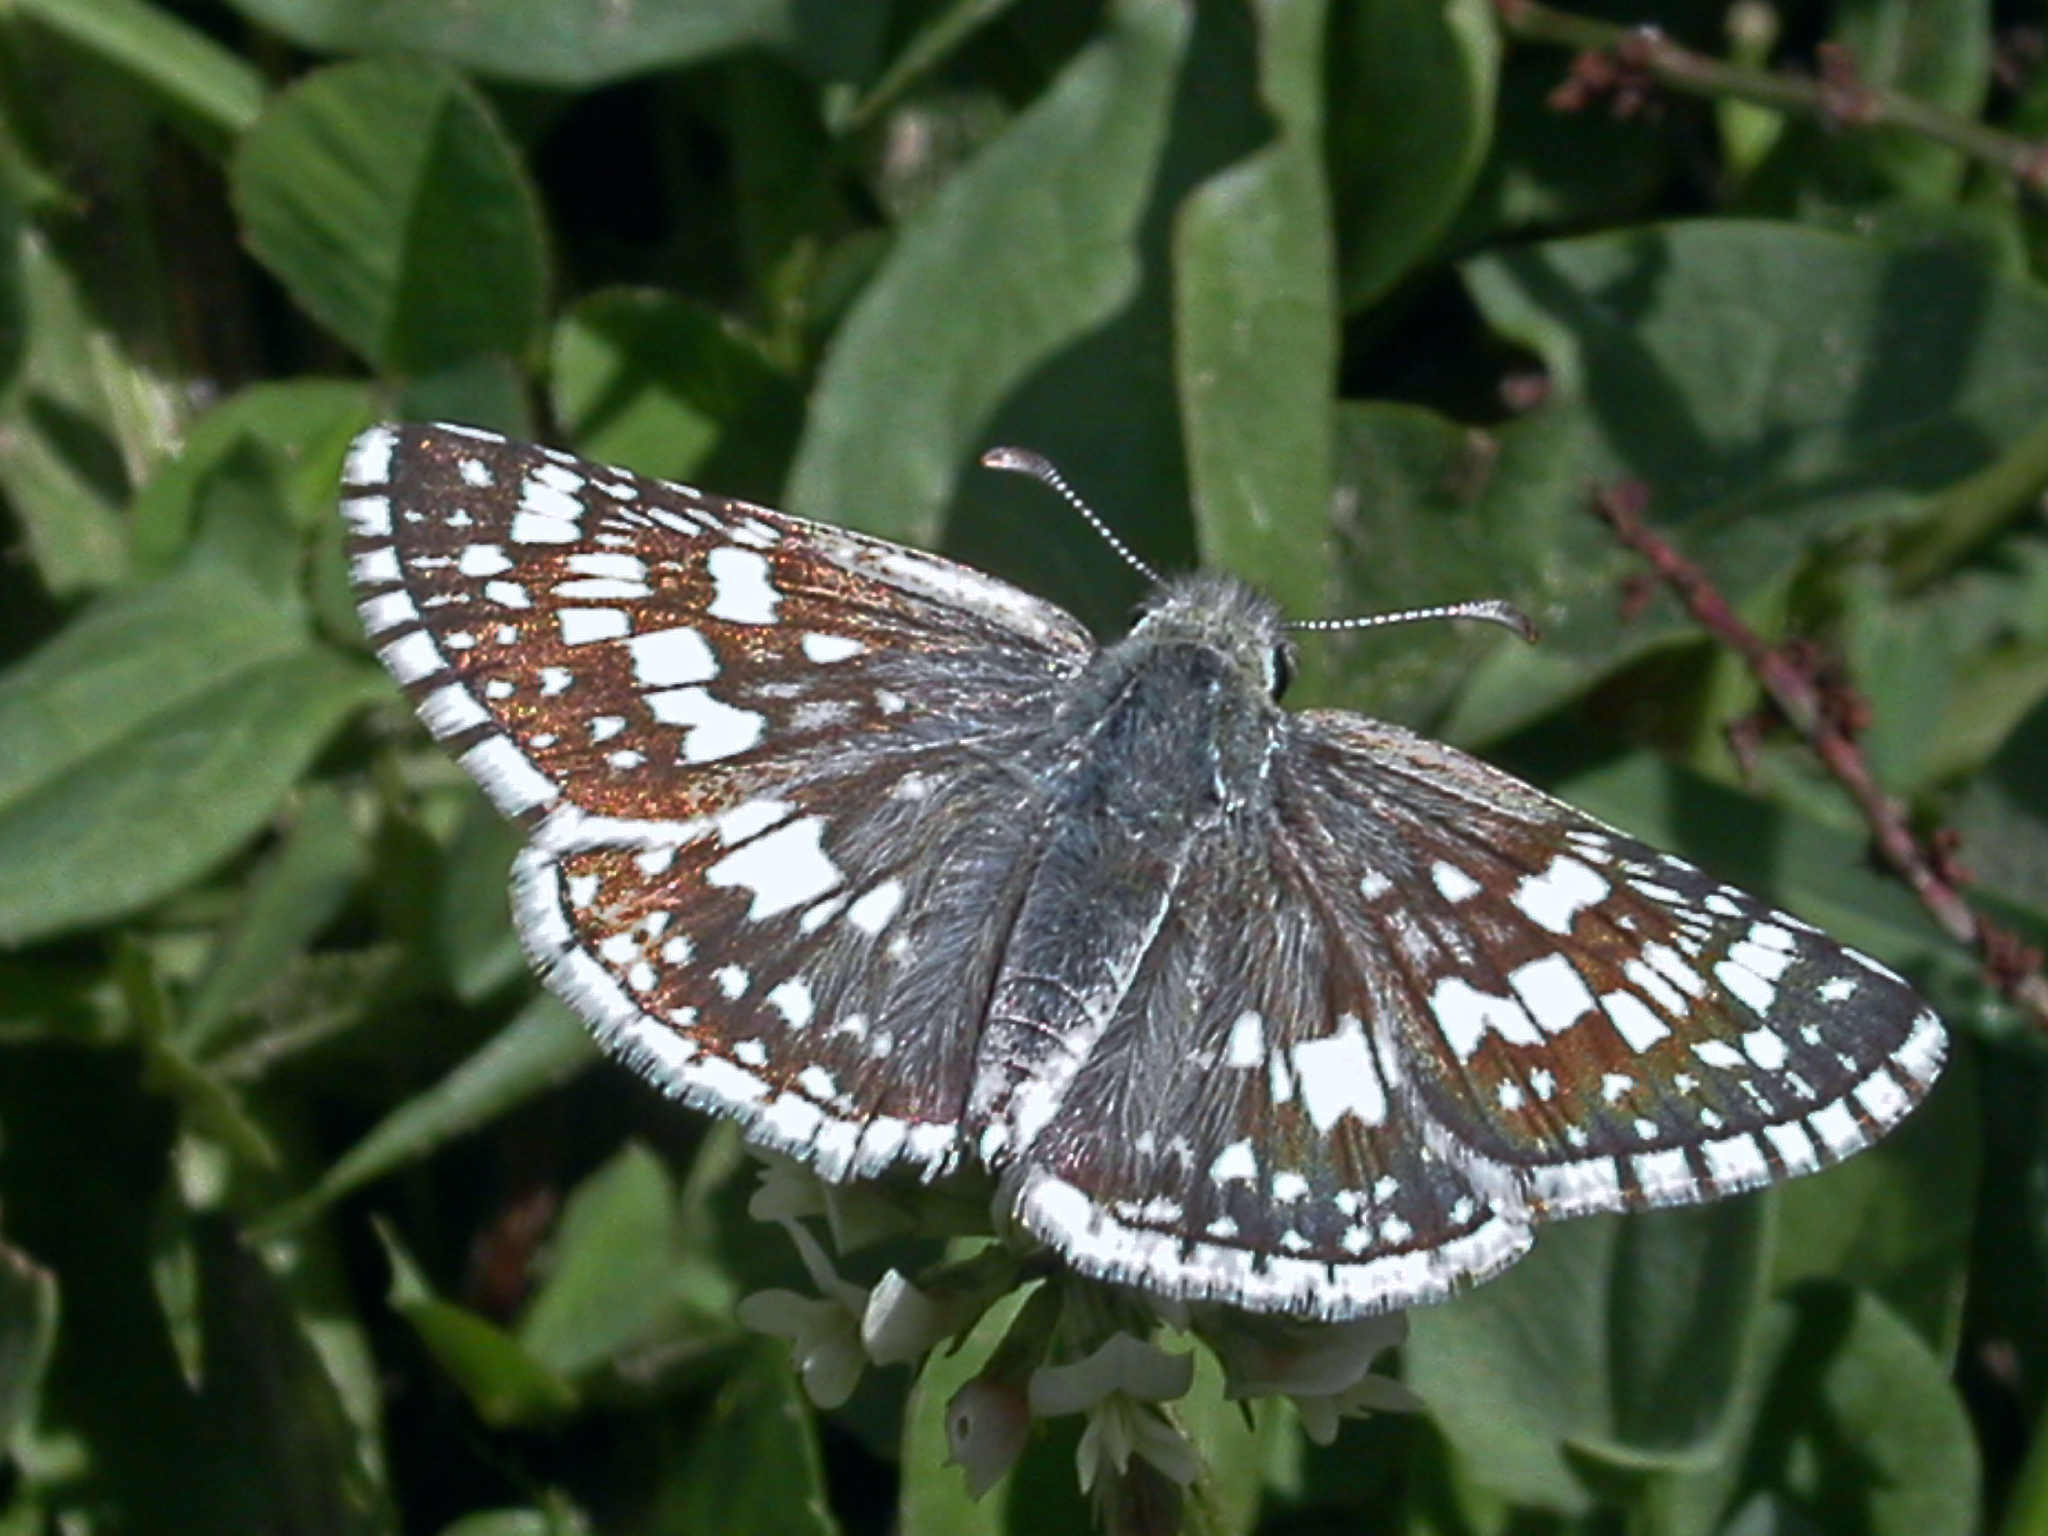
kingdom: Animalia
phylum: Arthropoda
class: Insecta
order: Lepidoptera
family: Hesperiidae
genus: Burnsius
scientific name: Burnsius communis
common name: Common checkered-skipper
